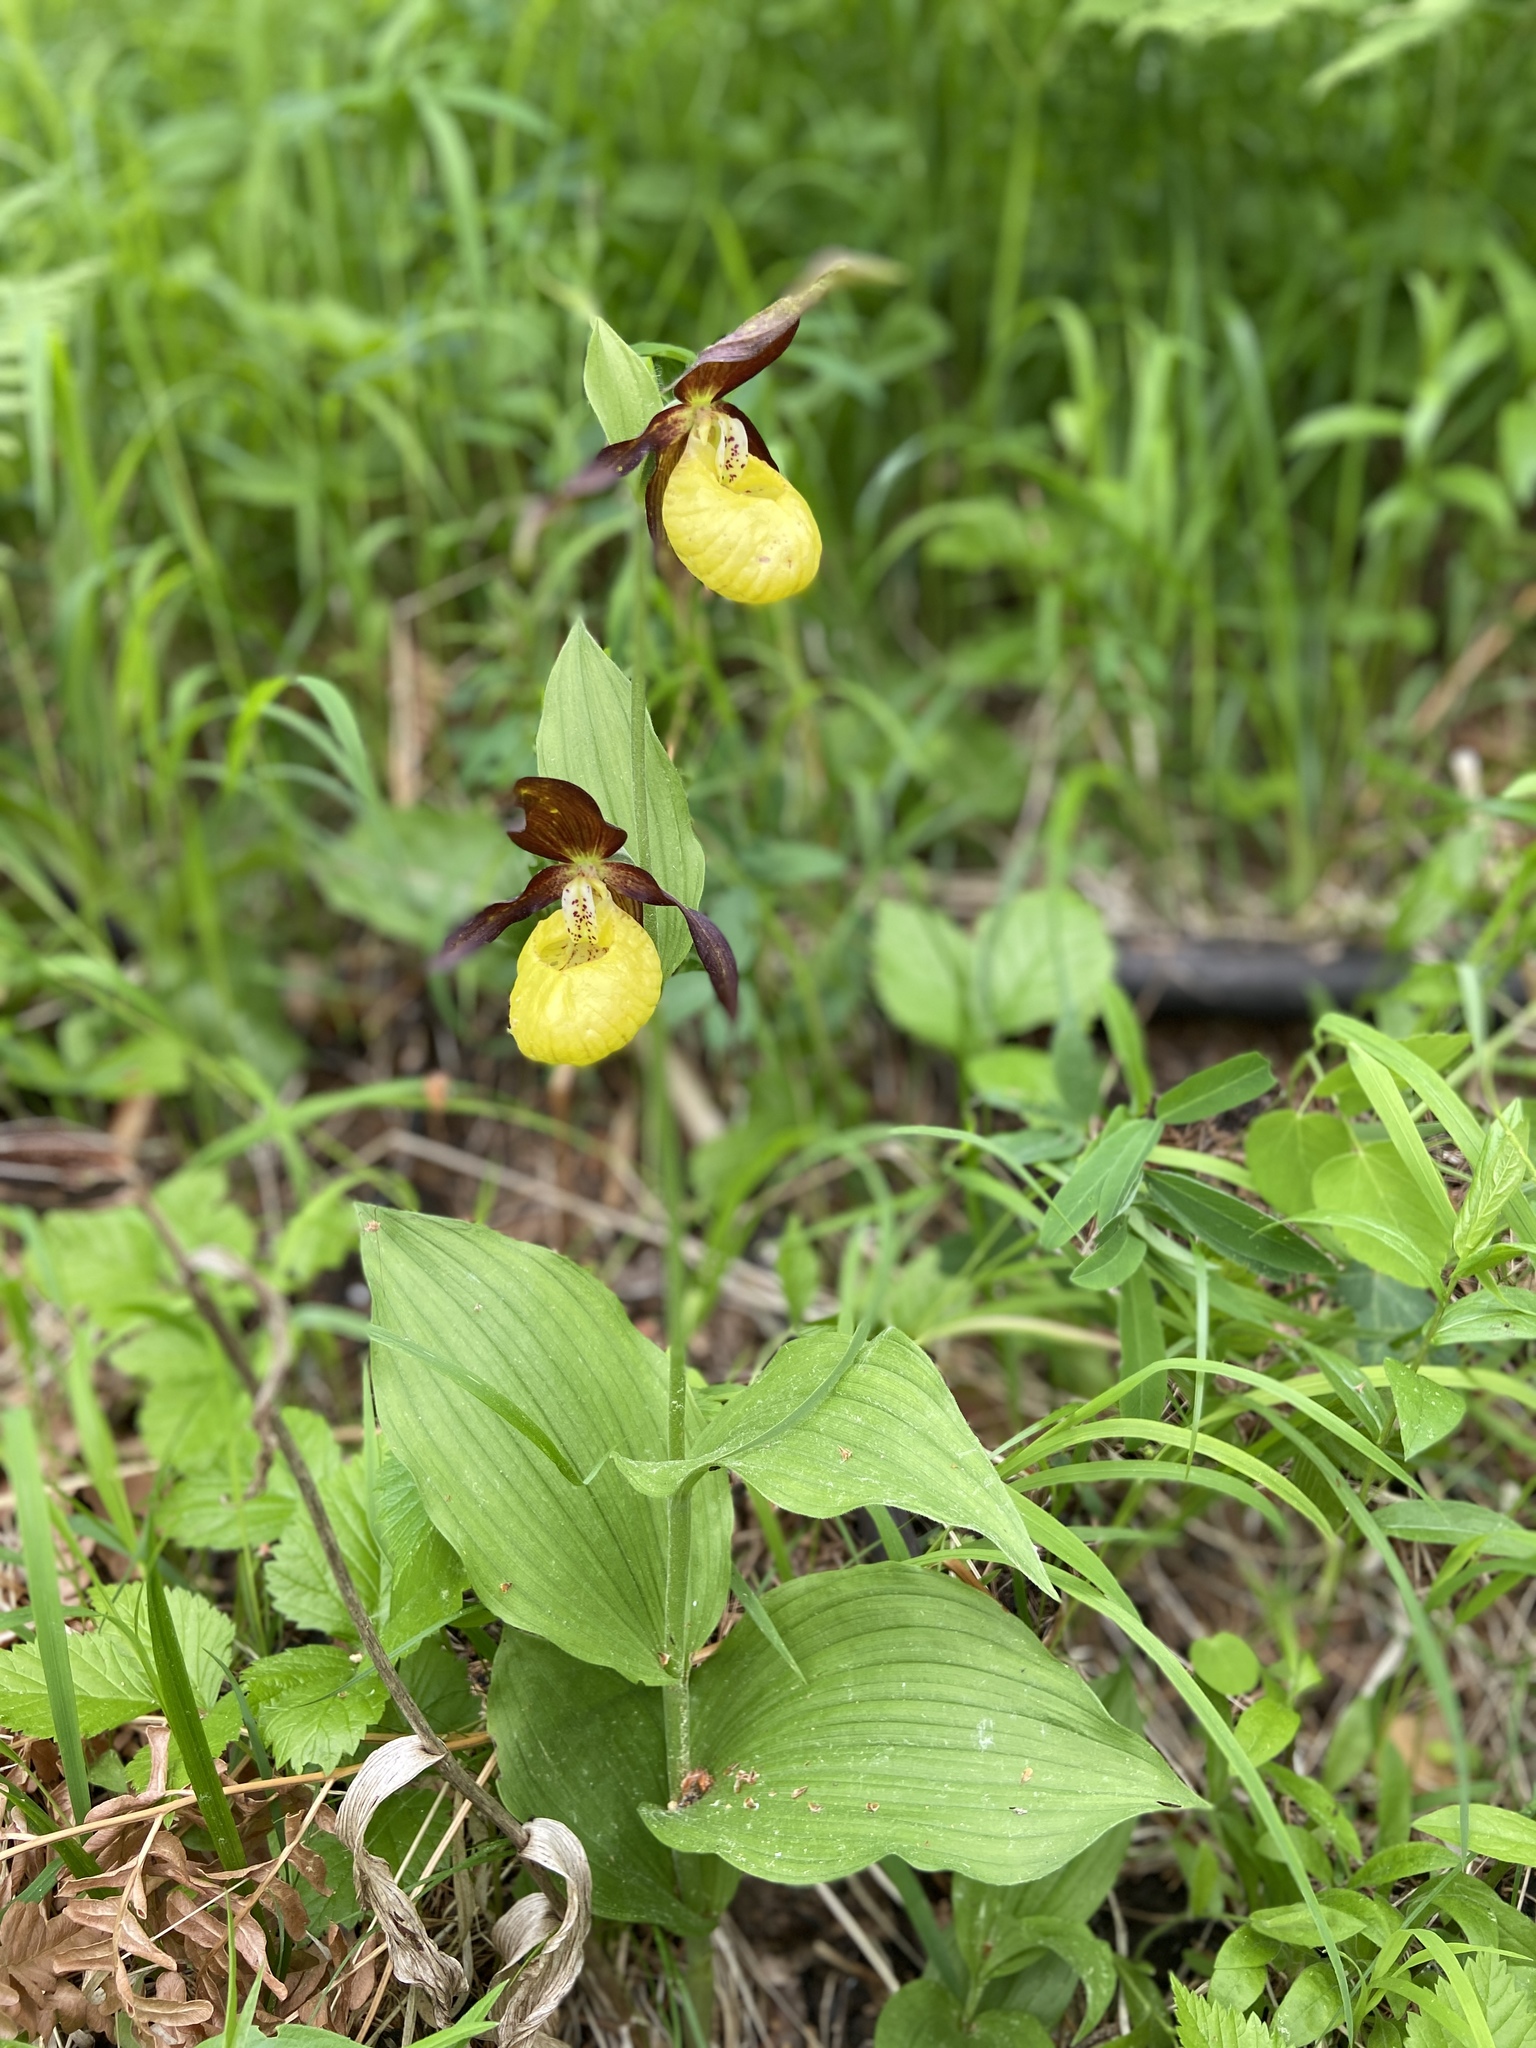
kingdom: Plantae
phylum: Tracheophyta
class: Liliopsida
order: Asparagales
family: Orchidaceae
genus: Cypripedium
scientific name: Cypripedium calceolus
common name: Lady's-slipper
